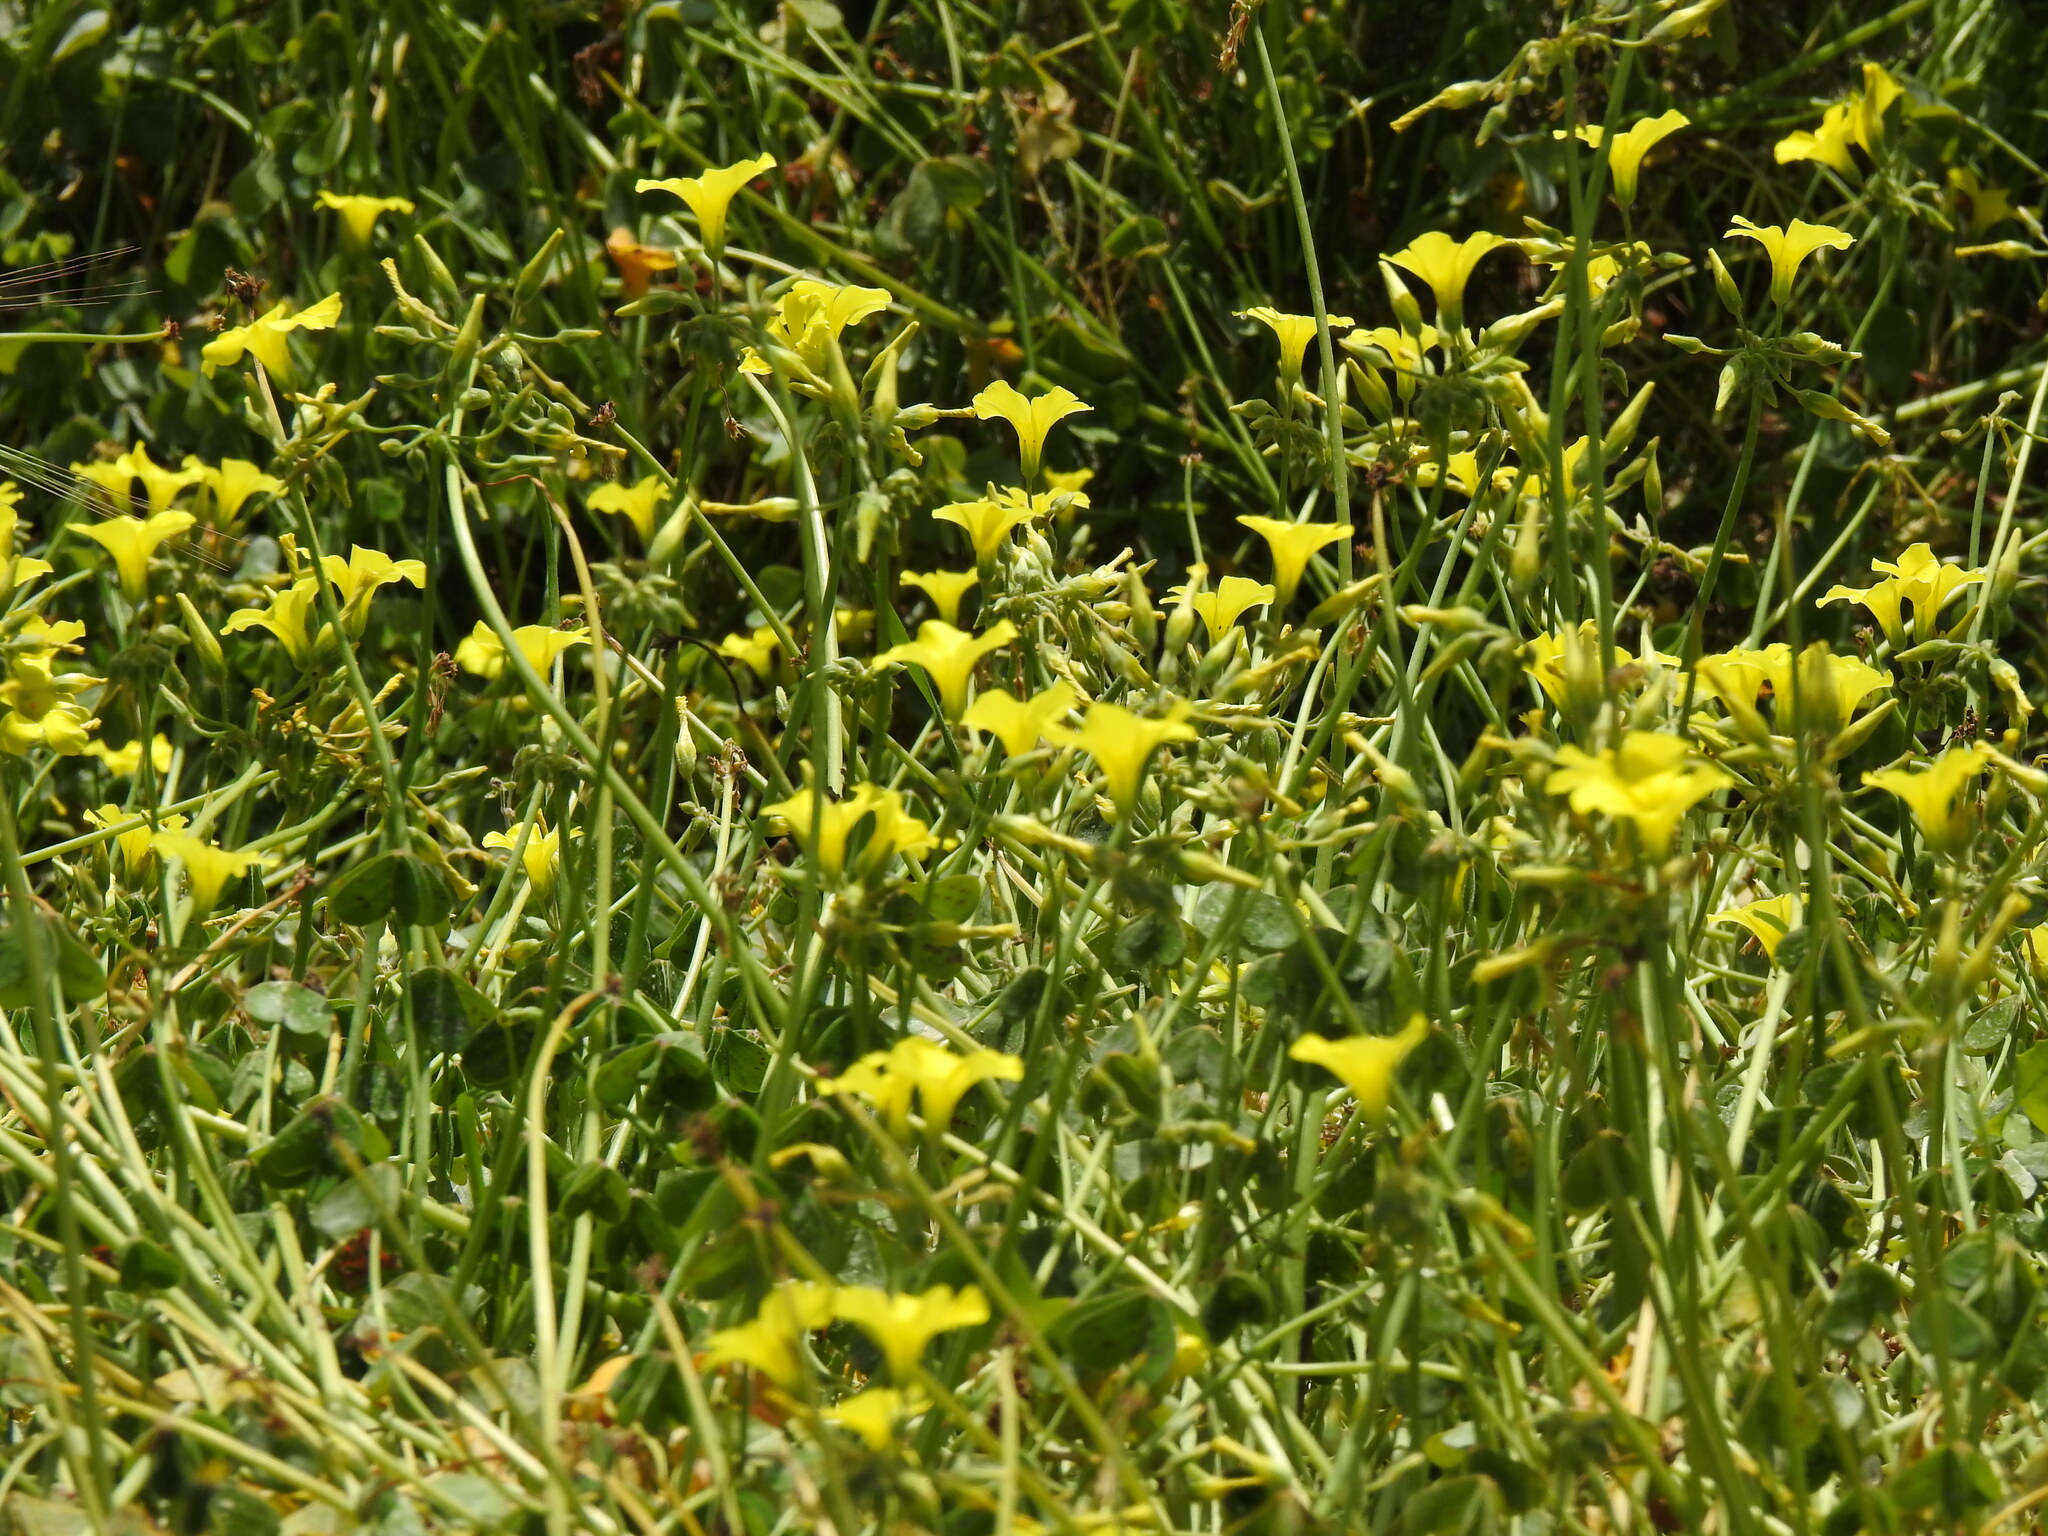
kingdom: Plantae
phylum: Tracheophyta
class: Magnoliopsida
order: Oxalidales
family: Oxalidaceae
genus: Oxalis
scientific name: Oxalis pes-caprae
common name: Bermuda-buttercup
